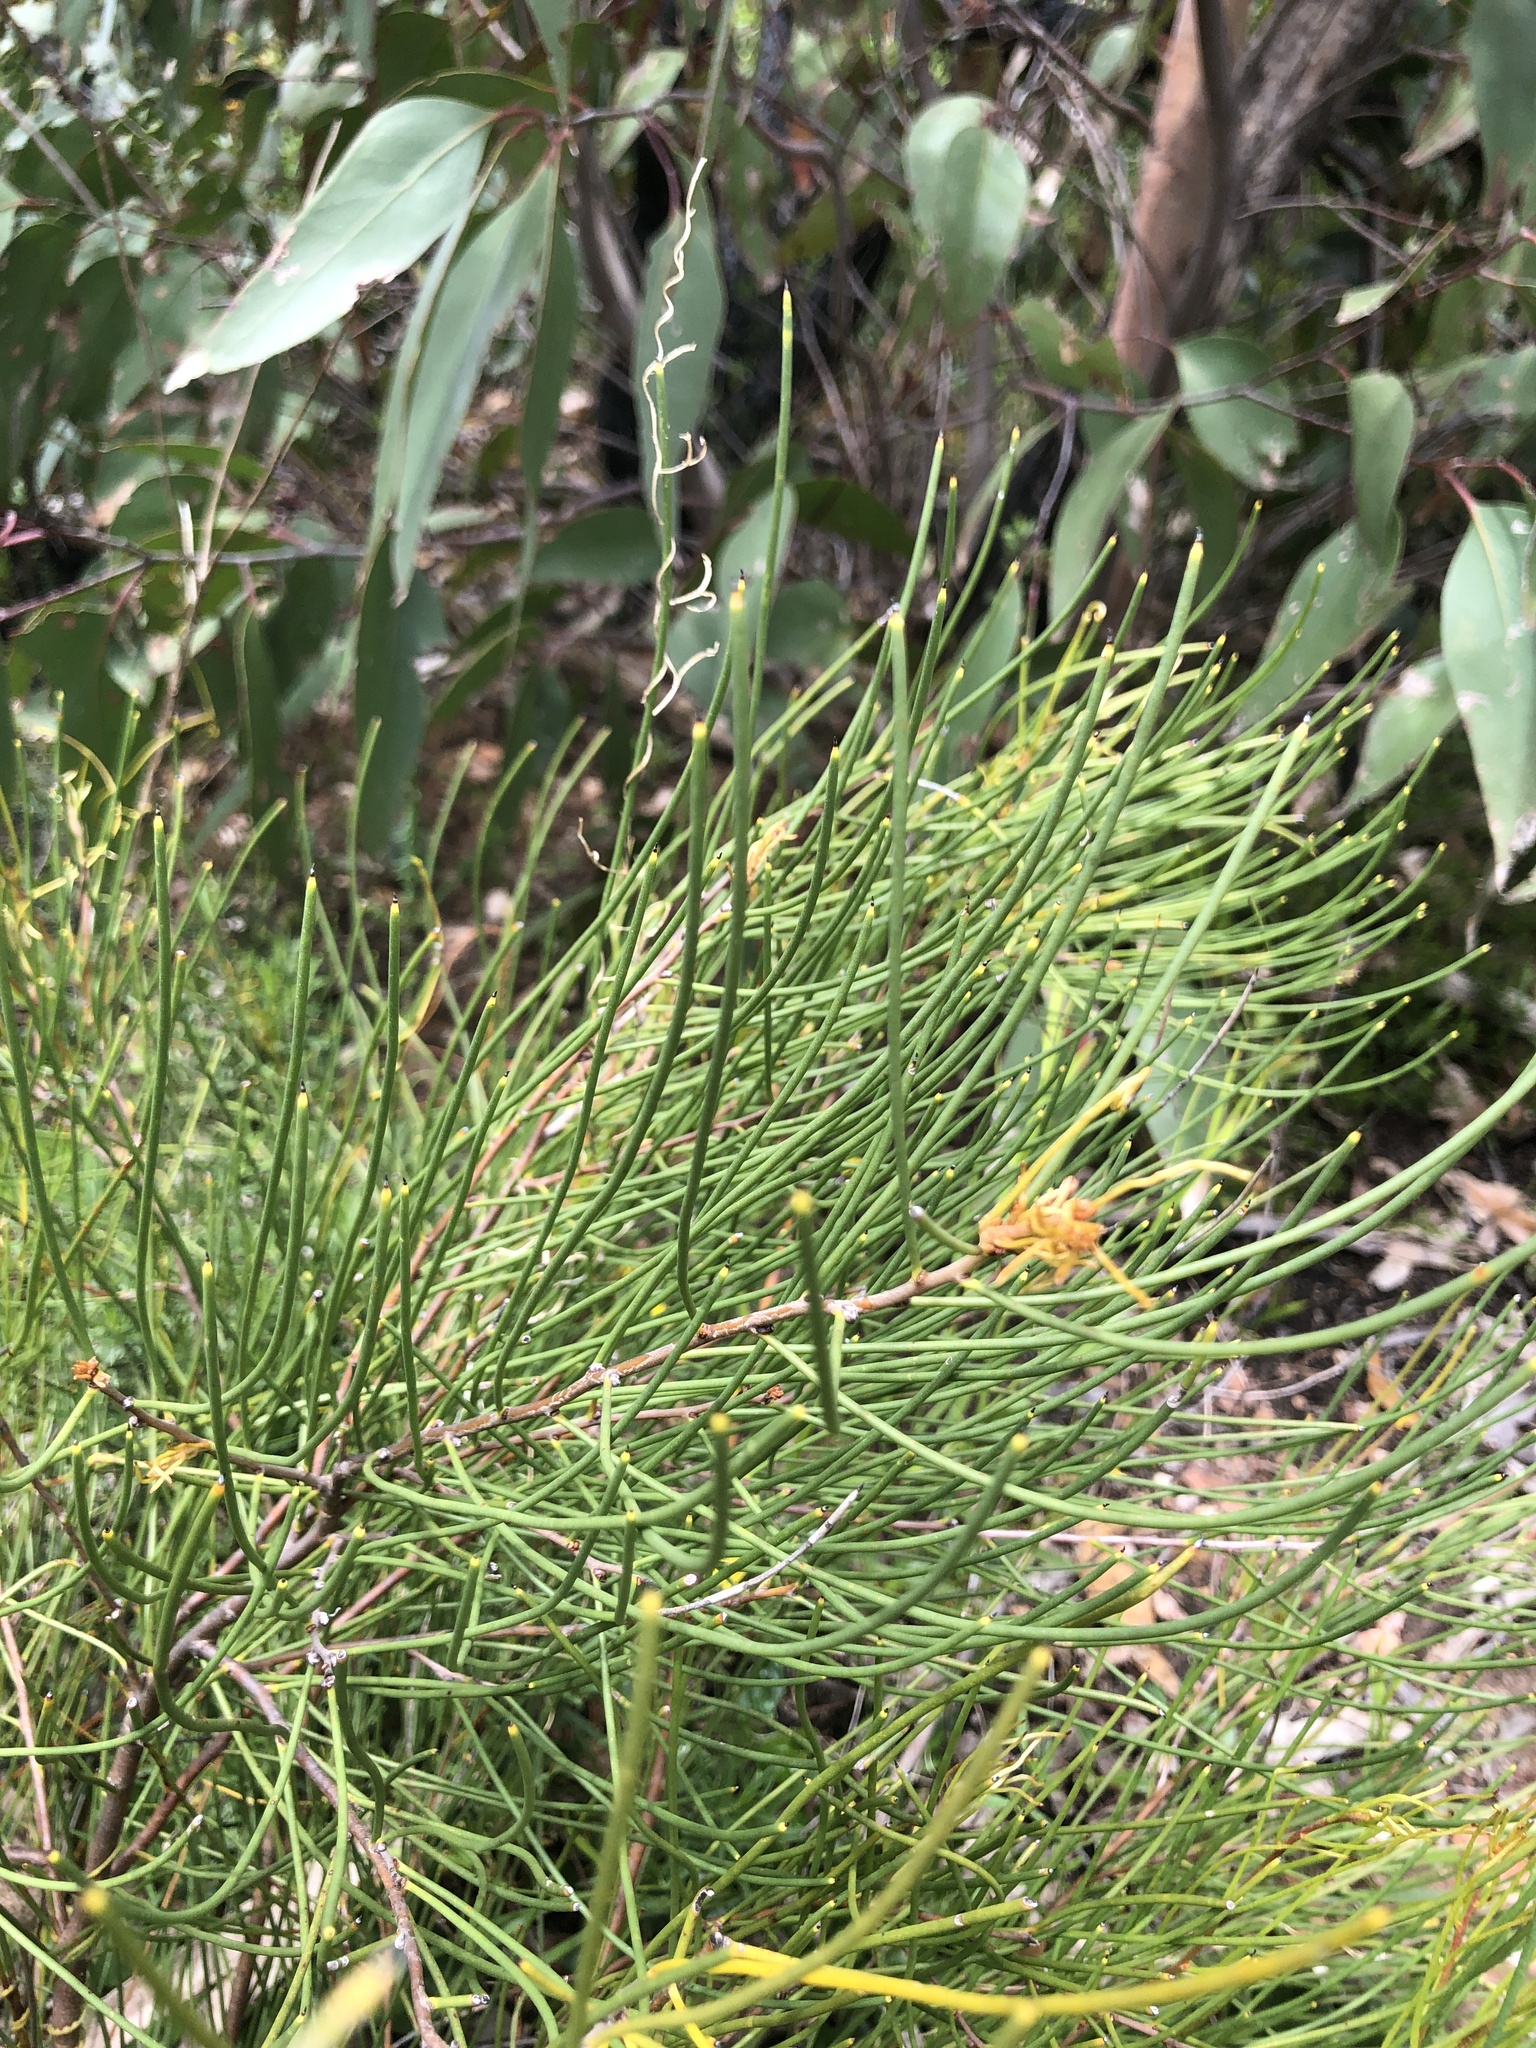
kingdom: Plantae
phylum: Tracheophyta
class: Magnoliopsida
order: Proteales
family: Proteaceae
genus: Hakea
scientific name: Hakea rostrata
